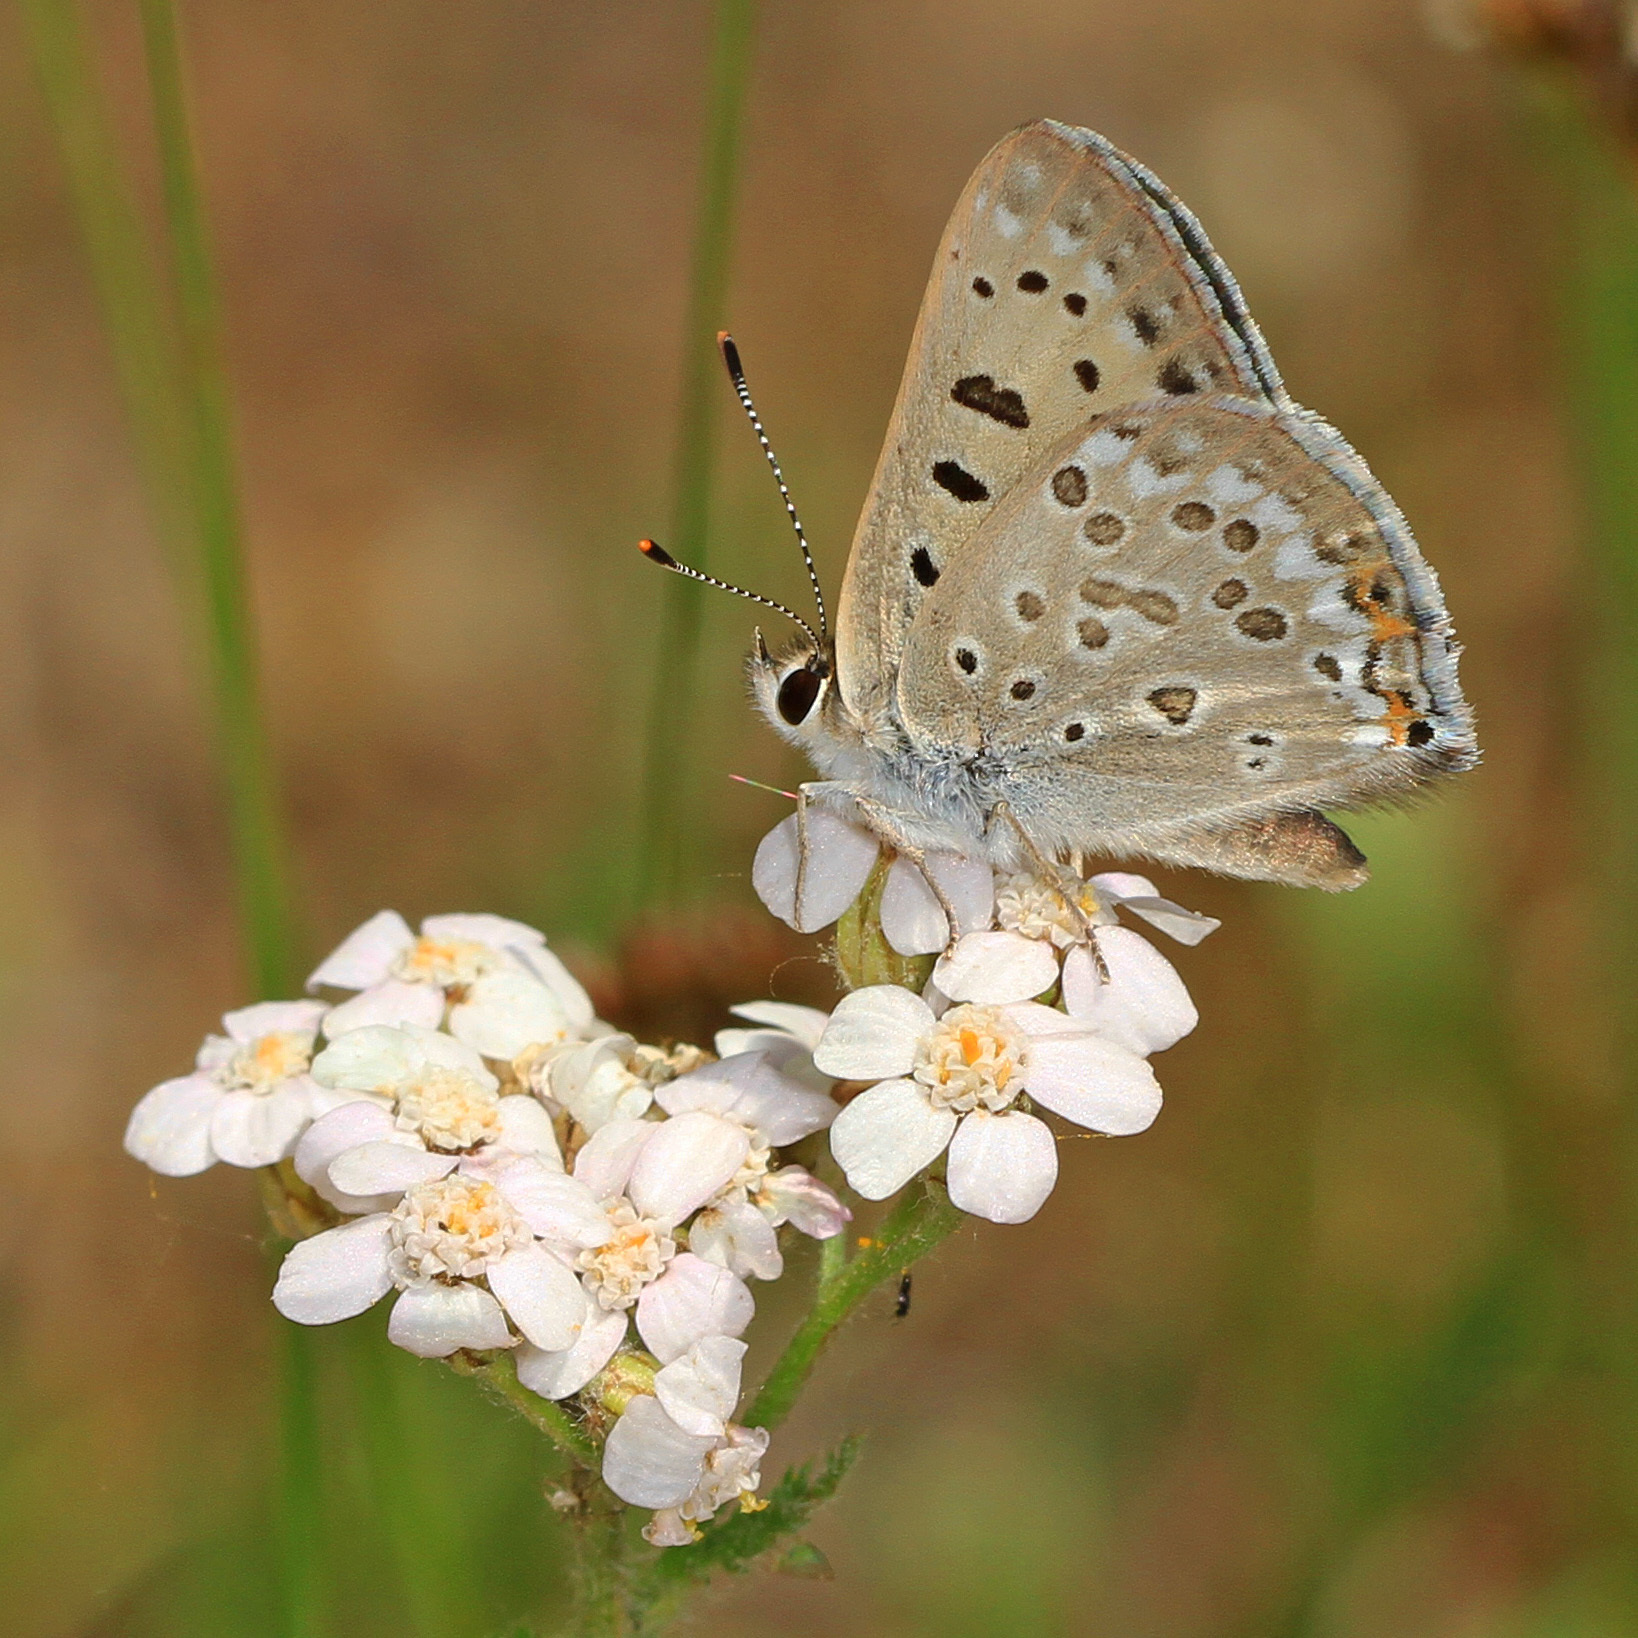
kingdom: Animalia
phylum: Arthropoda
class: Insecta
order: Lepidoptera
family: Lycaenidae
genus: Tharsalea
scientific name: Tharsalea editha
